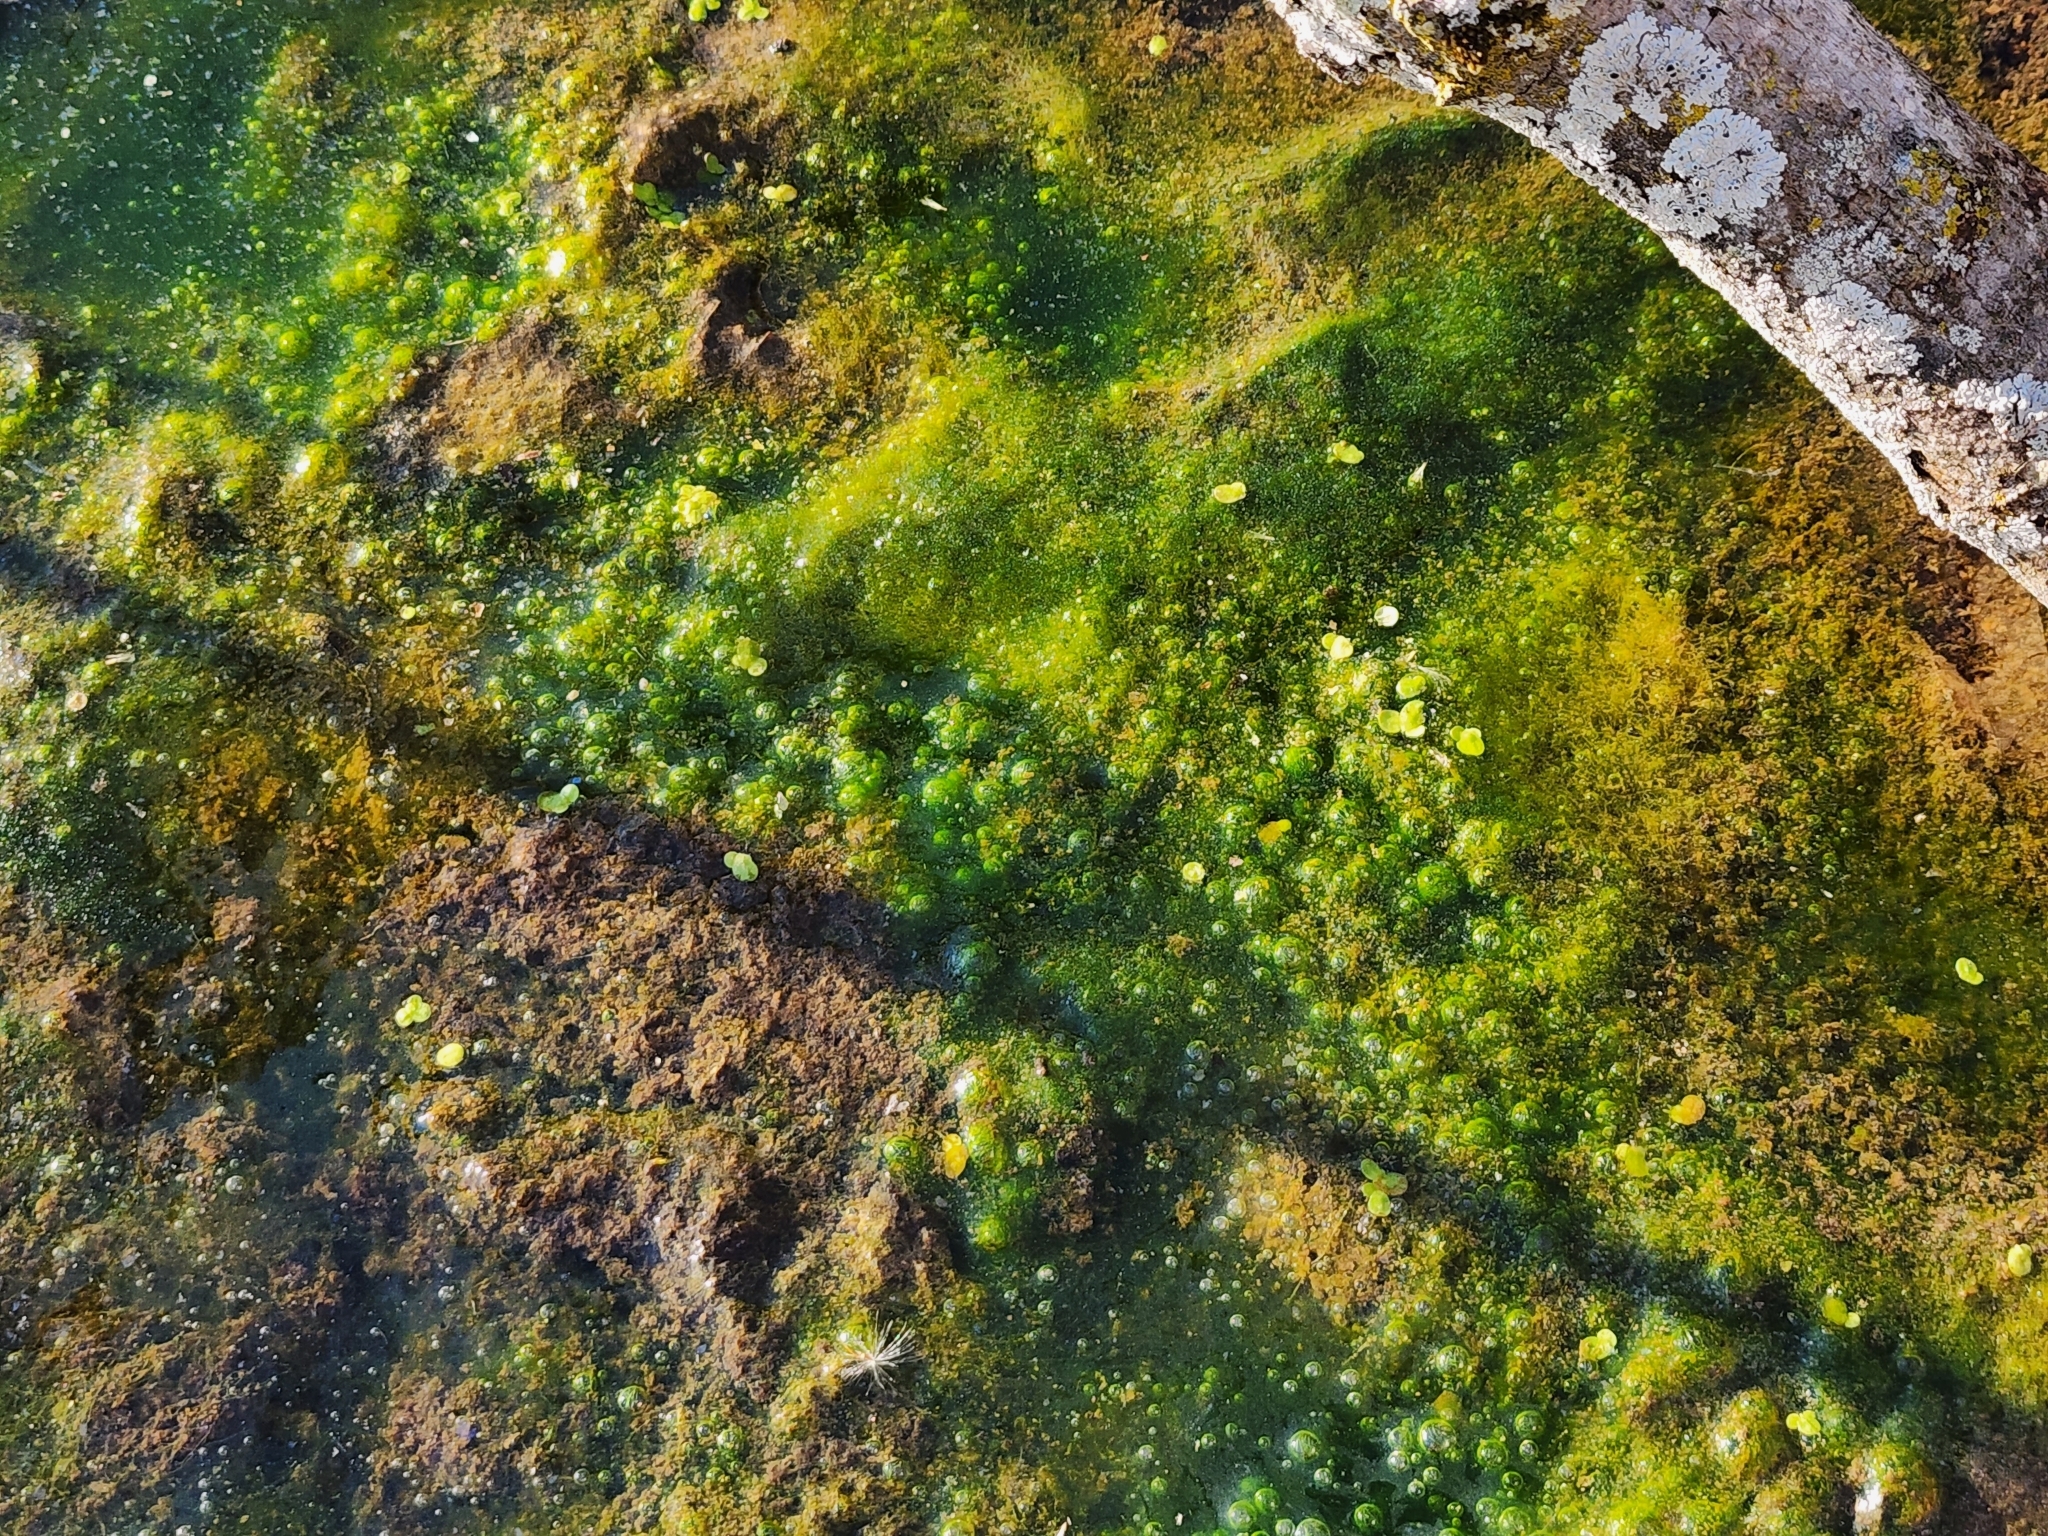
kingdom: Plantae
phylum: Tracheophyta
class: Liliopsida
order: Alismatales
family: Araceae
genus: Lemna
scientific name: Lemna minor
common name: Common duckweed
